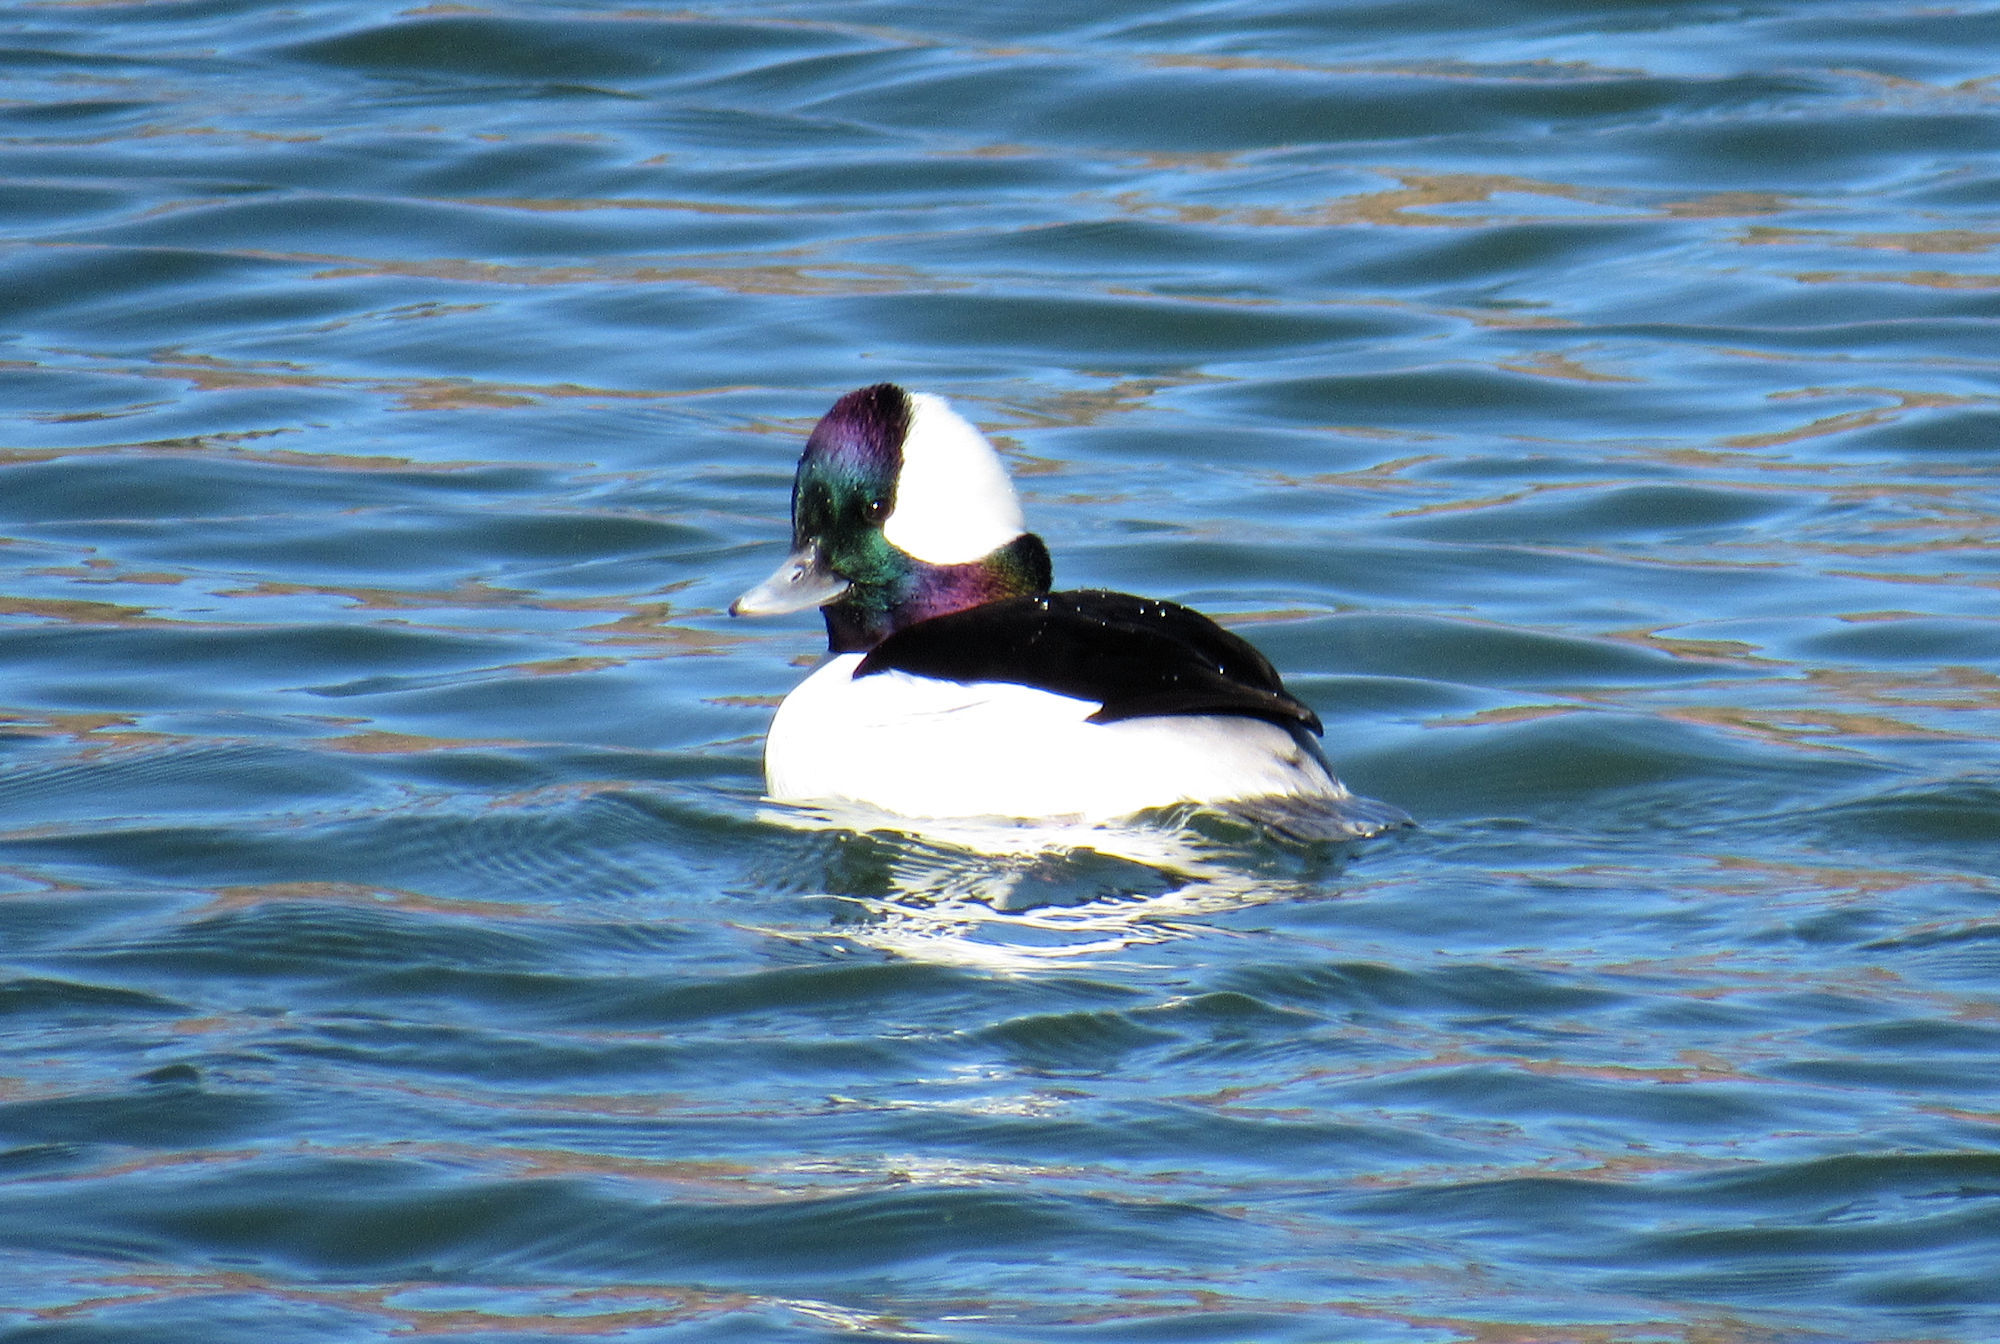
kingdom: Animalia
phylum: Chordata
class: Aves
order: Anseriformes
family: Anatidae
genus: Bucephala
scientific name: Bucephala albeola
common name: Bufflehead
